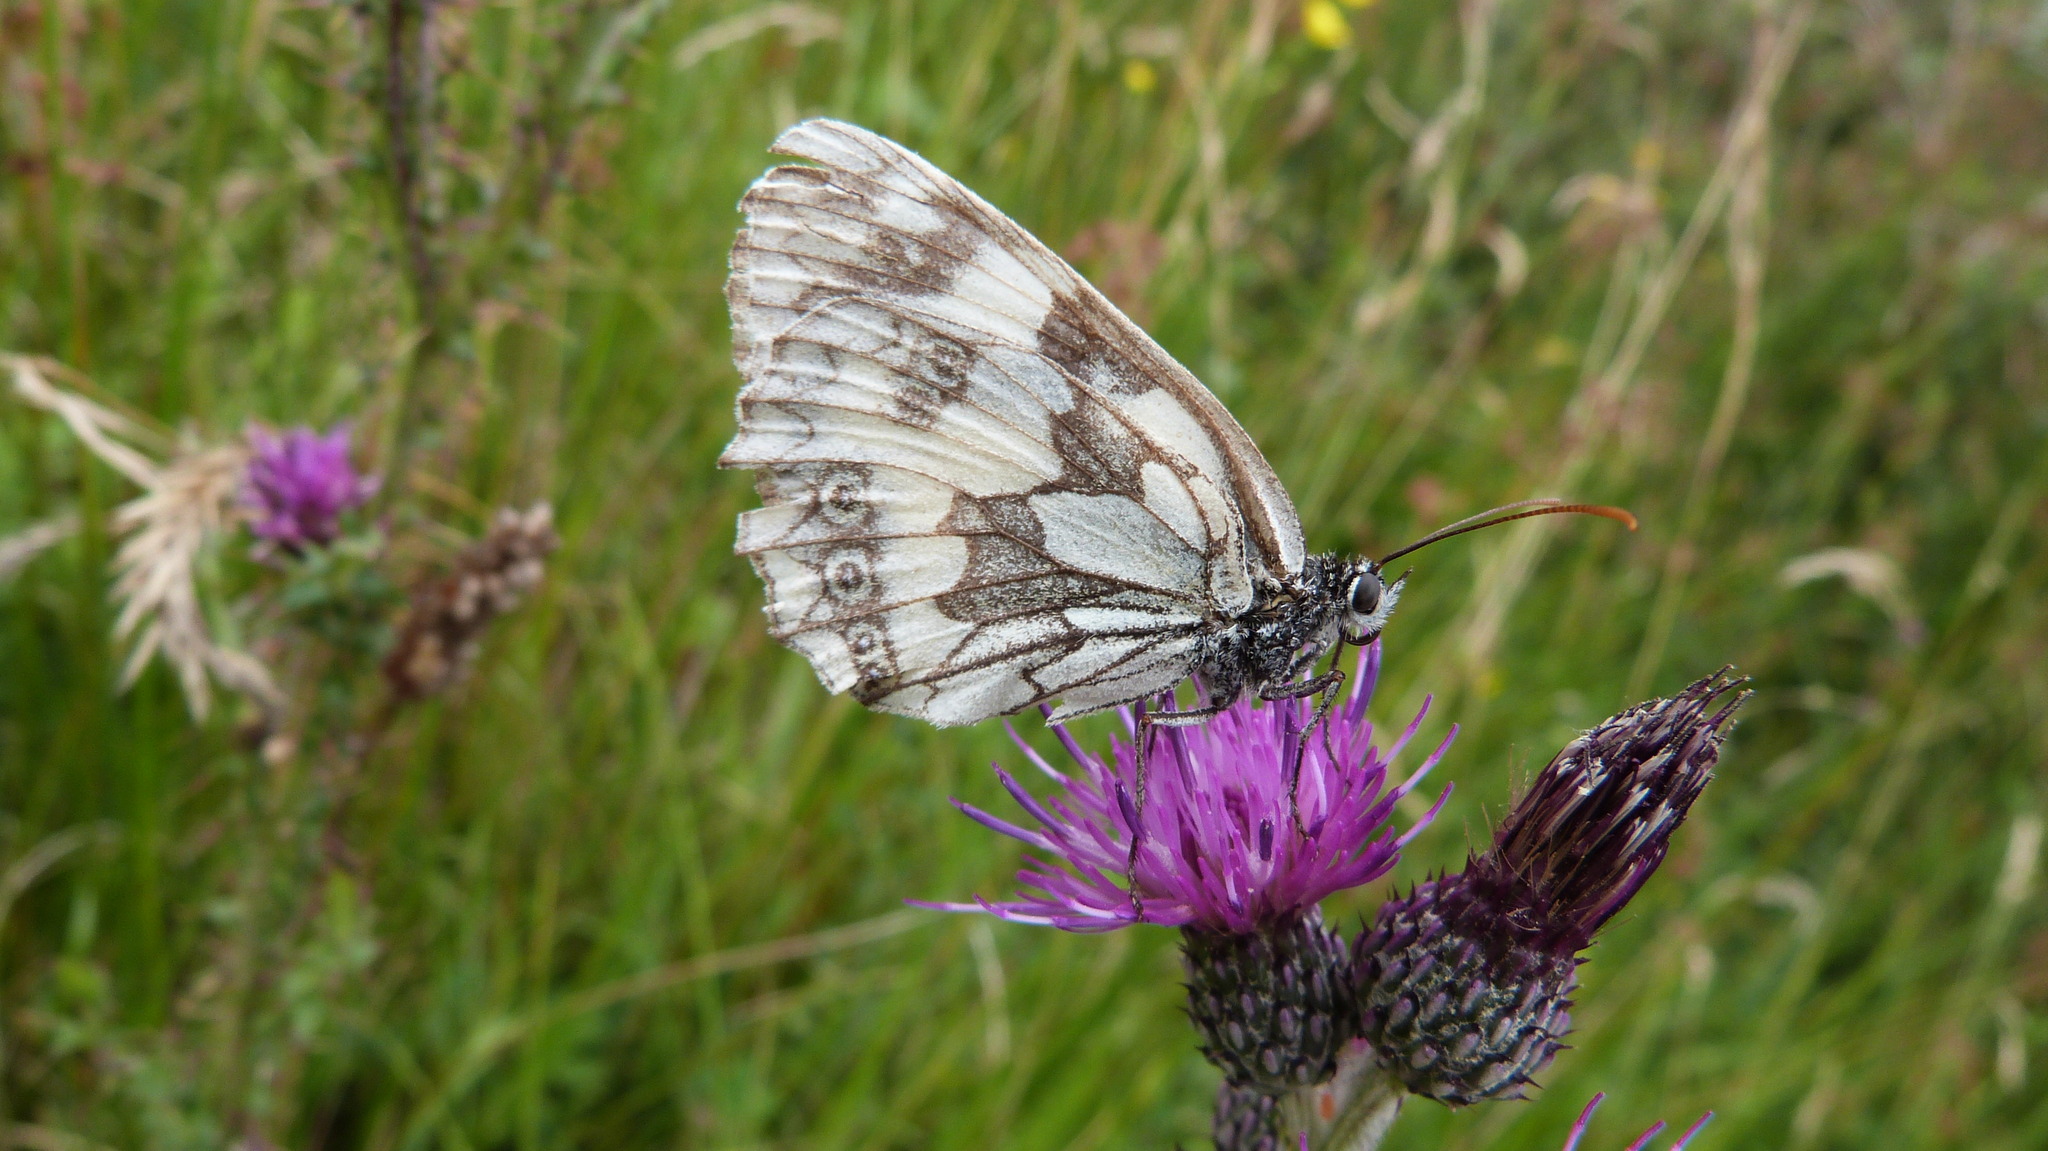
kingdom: Animalia
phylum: Arthropoda
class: Insecta
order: Lepidoptera
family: Nymphalidae
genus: Melanargia
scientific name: Melanargia galathea
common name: Marbled white
